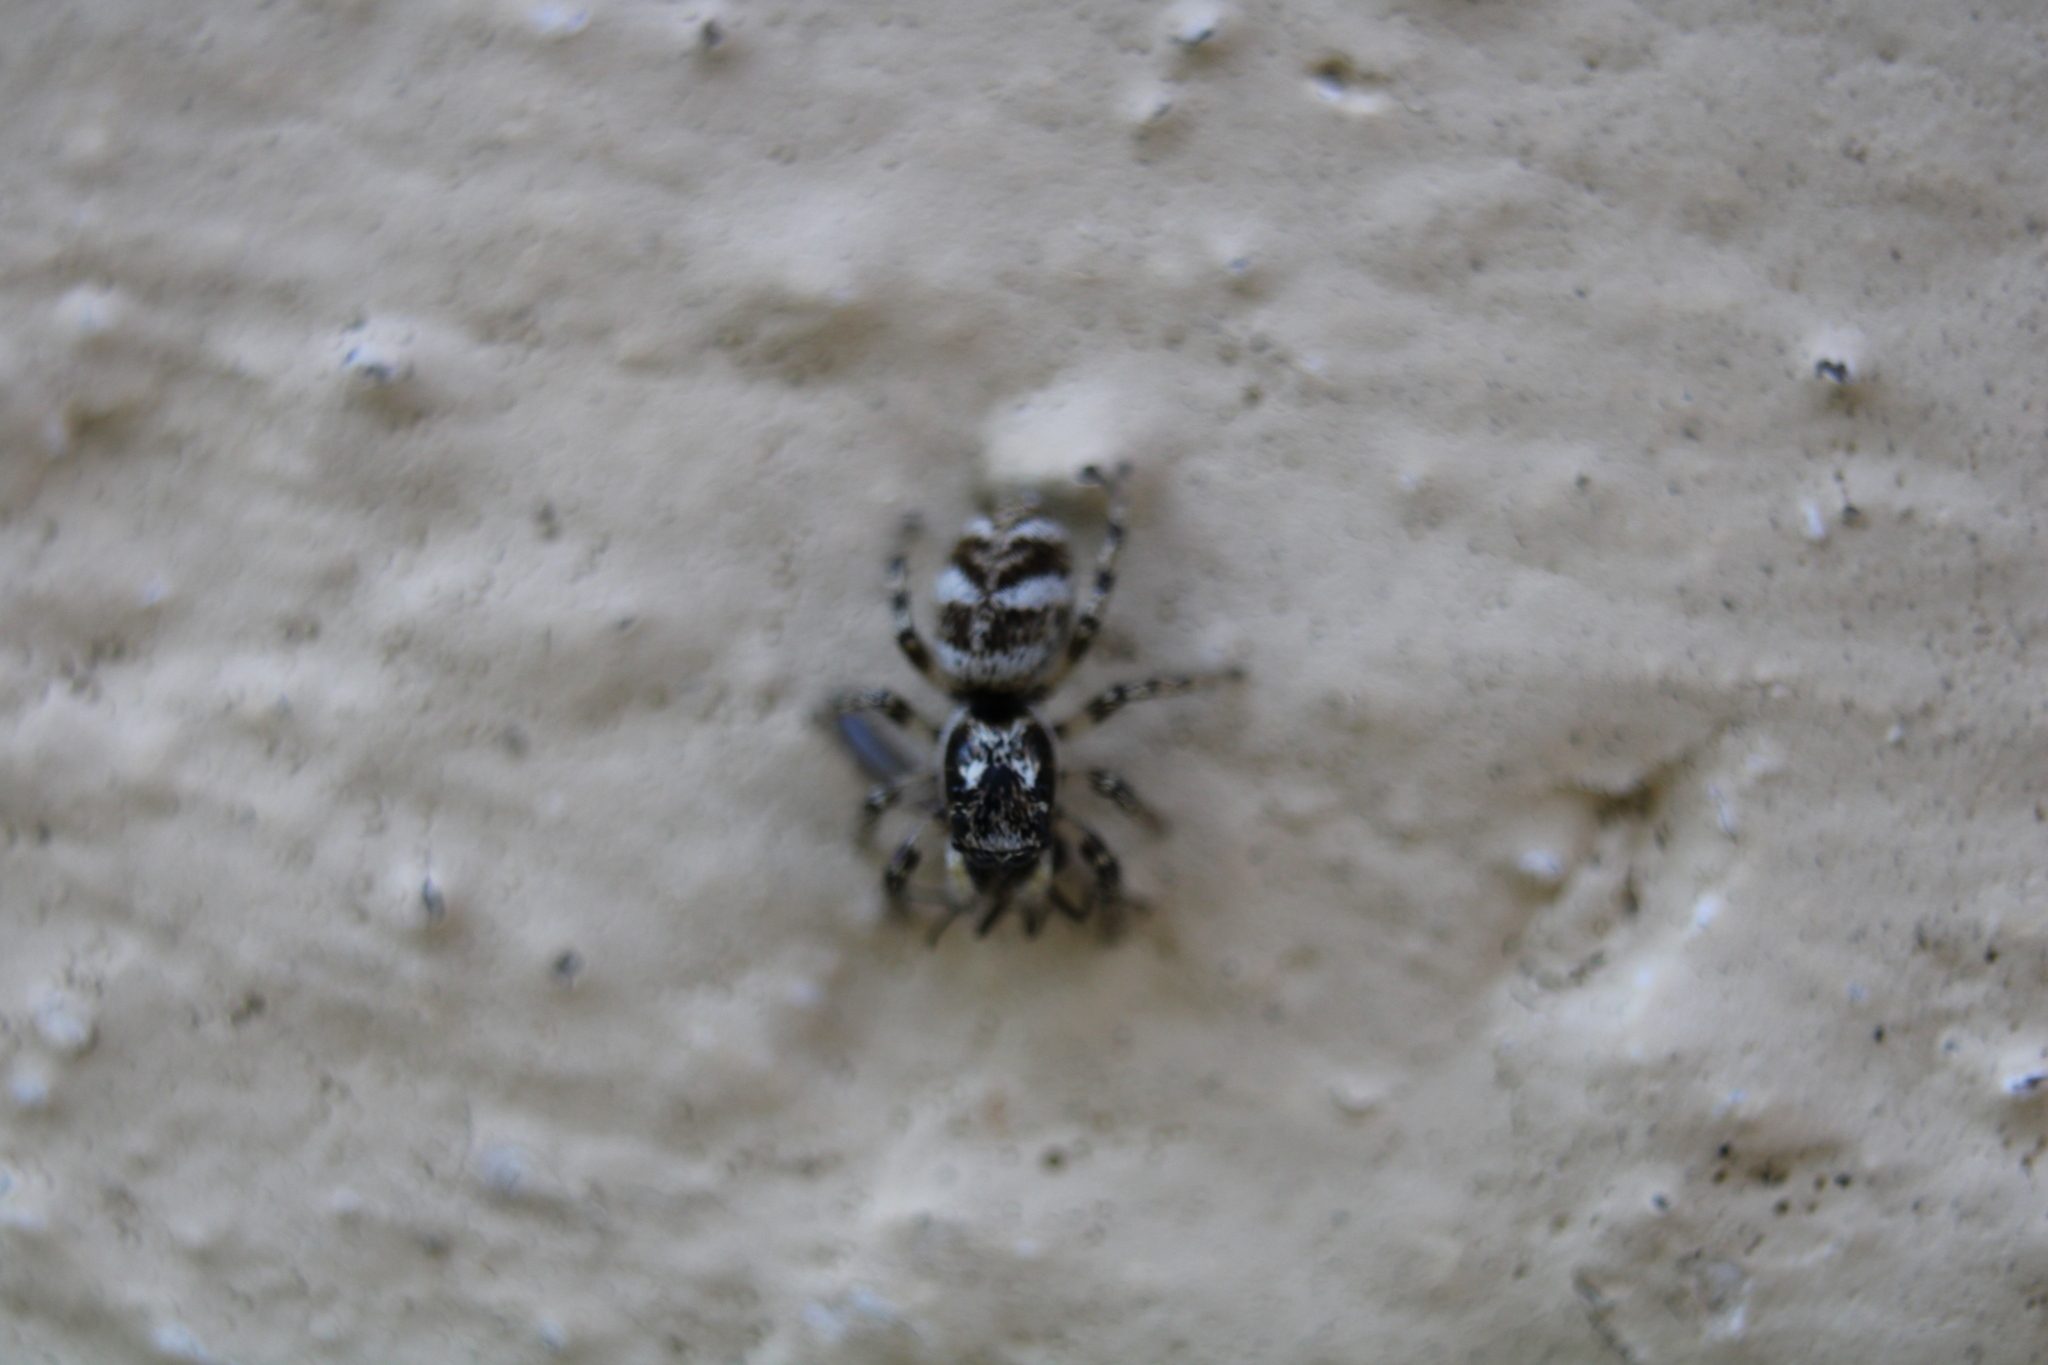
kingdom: Animalia
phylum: Arthropoda
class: Arachnida
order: Araneae
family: Salticidae
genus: Salticus
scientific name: Salticus scenicus
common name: Zebra jumper
